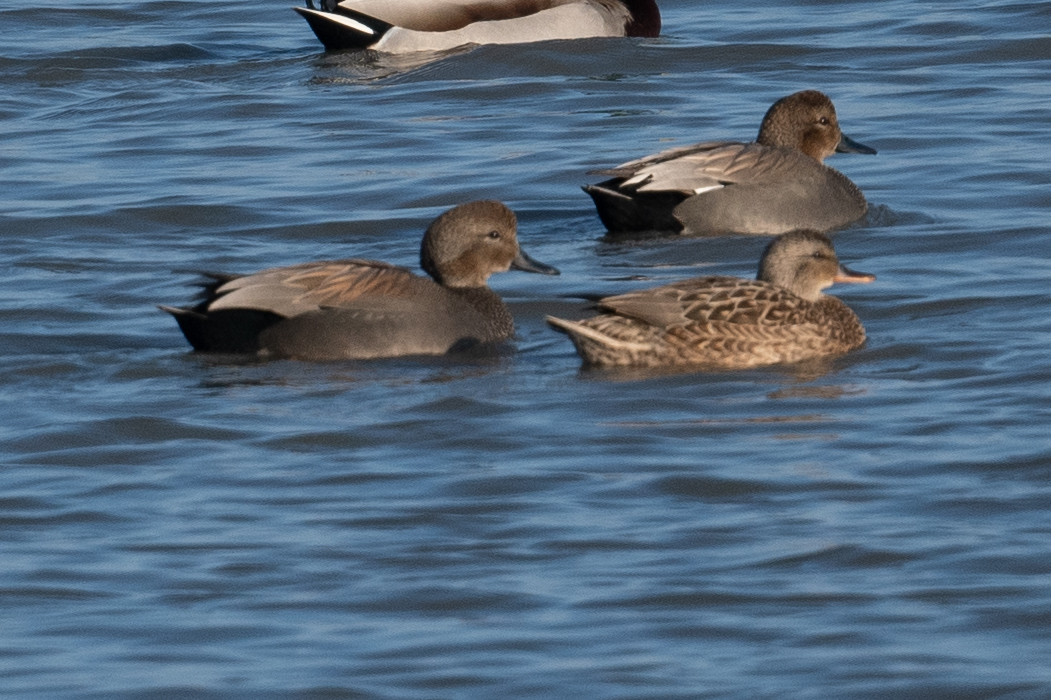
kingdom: Animalia
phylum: Chordata
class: Aves
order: Anseriformes
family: Anatidae
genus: Mareca
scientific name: Mareca strepera
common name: Gadwall
